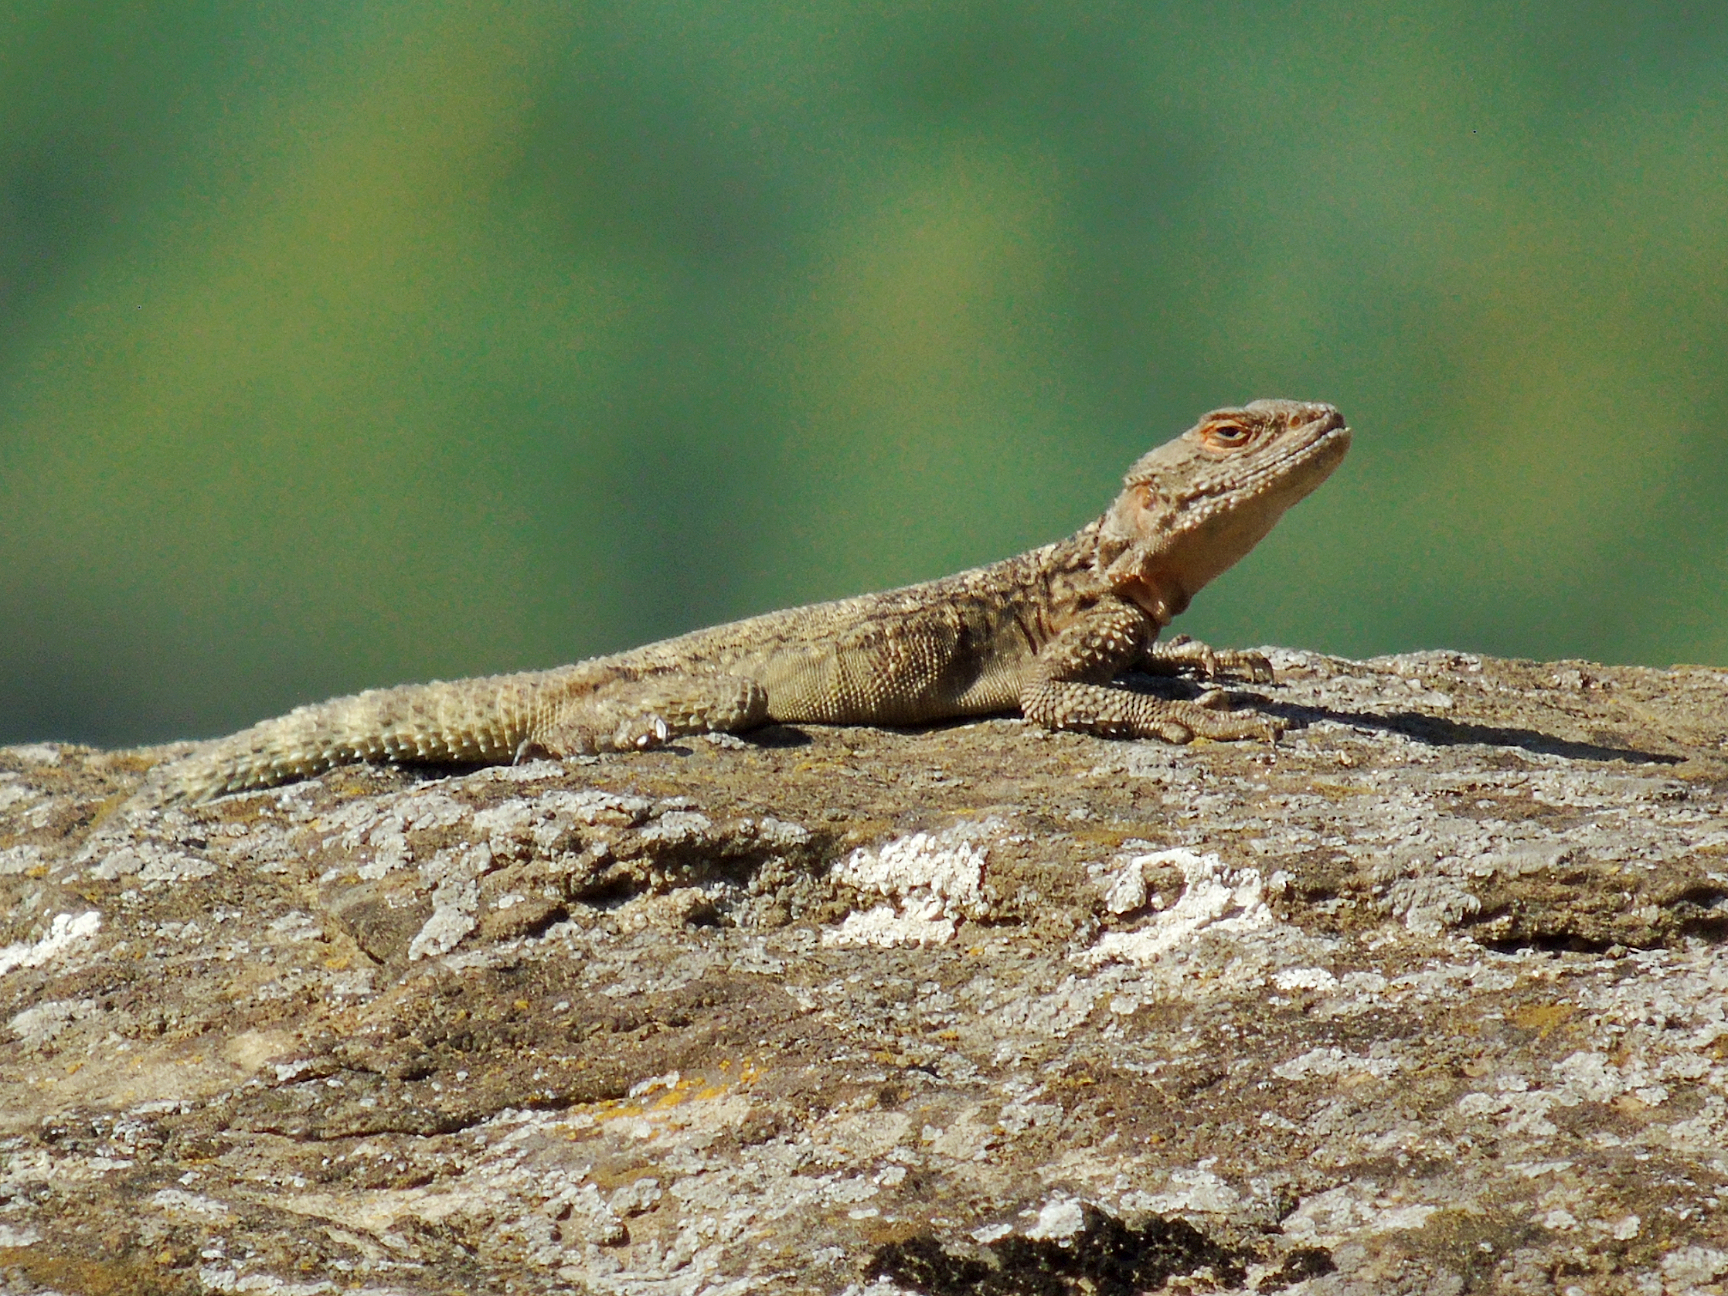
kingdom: Animalia
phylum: Chordata
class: Squamata
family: Agamidae
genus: Paralaudakia
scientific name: Paralaudakia caucasia
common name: Caucasian agama
